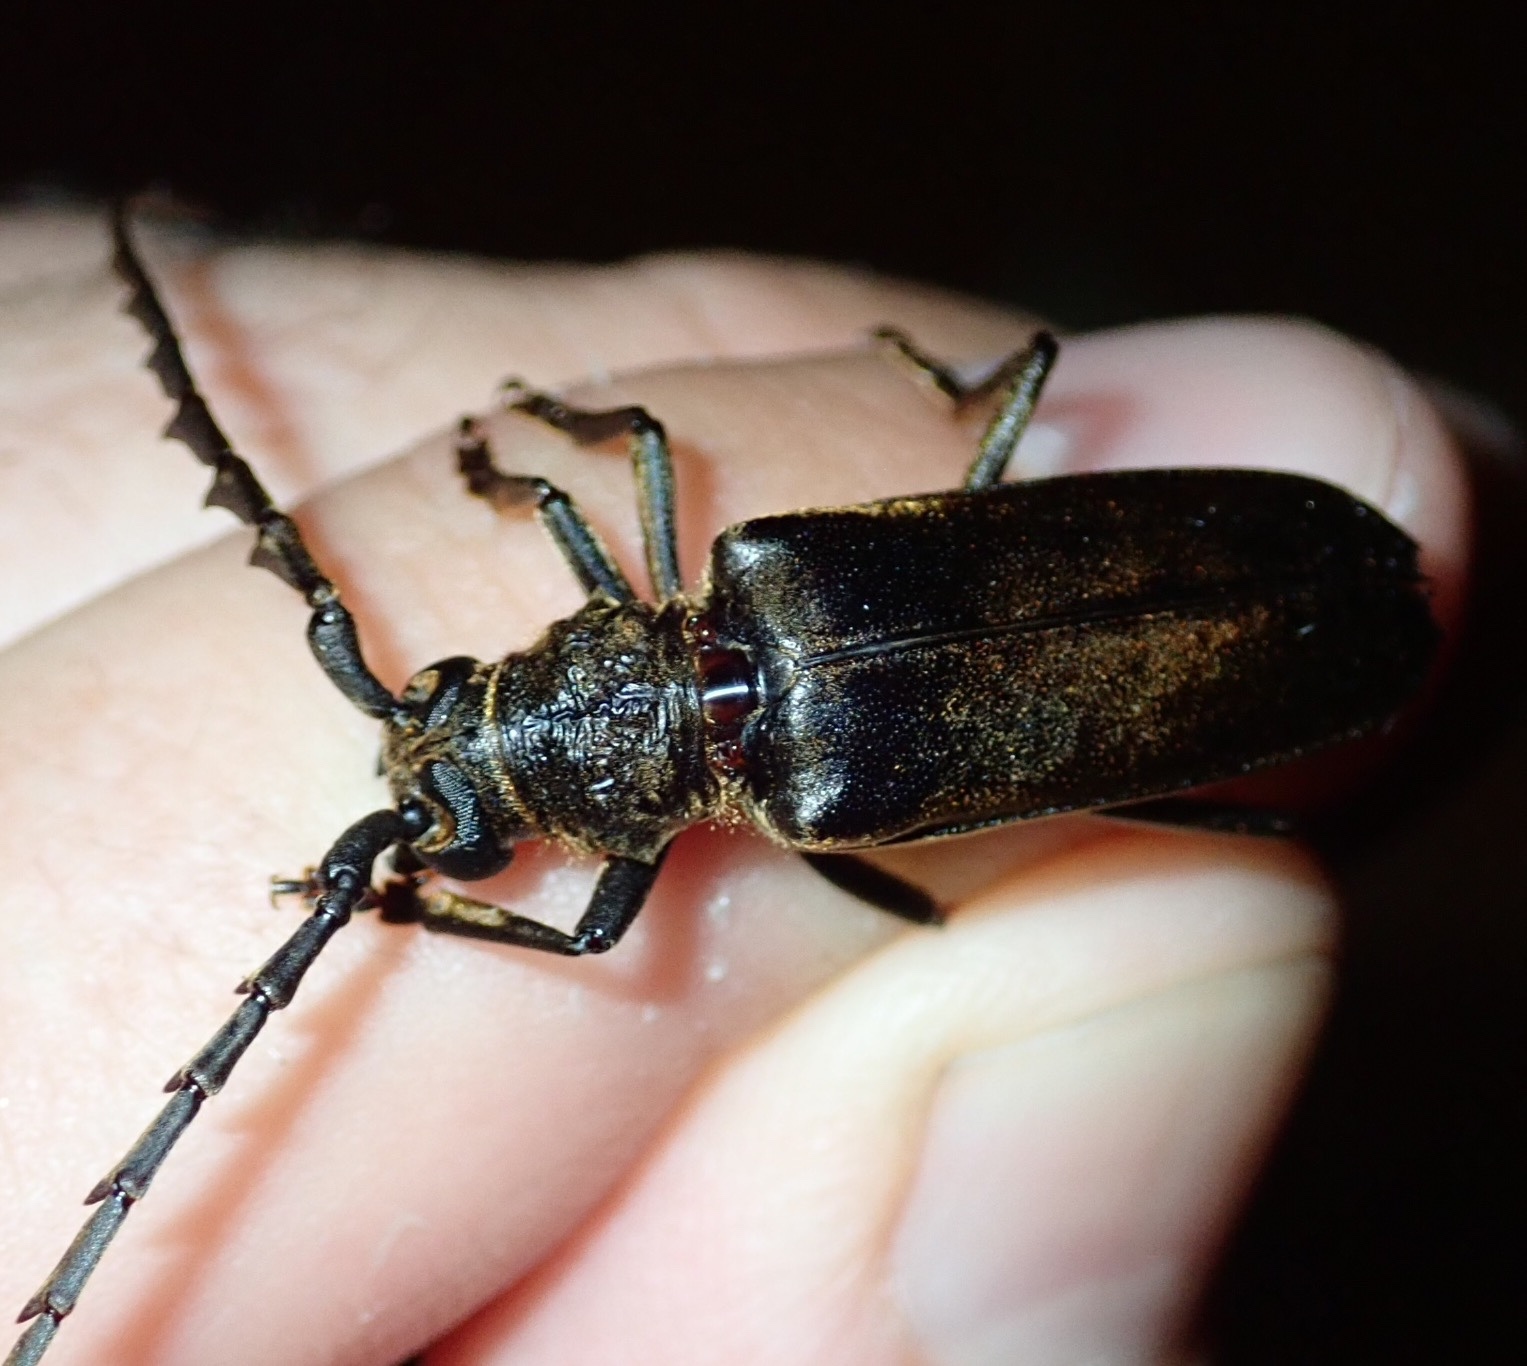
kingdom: Animalia
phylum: Arthropoda
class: Insecta
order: Coleoptera
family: Cerambycidae
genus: Prosphilus
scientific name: Prosphilus serraticornis
